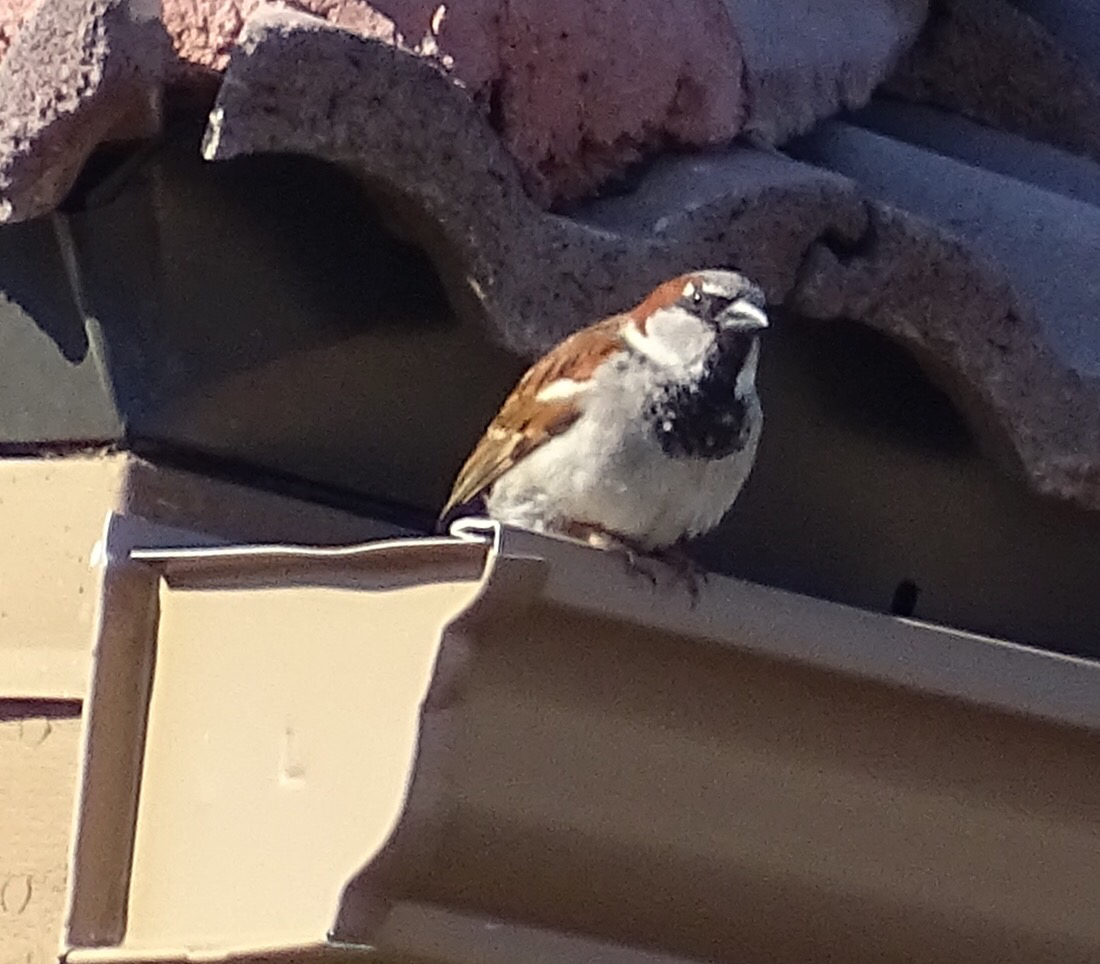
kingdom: Animalia
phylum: Chordata
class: Aves
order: Passeriformes
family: Passeridae
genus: Passer
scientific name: Passer domesticus
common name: House sparrow
